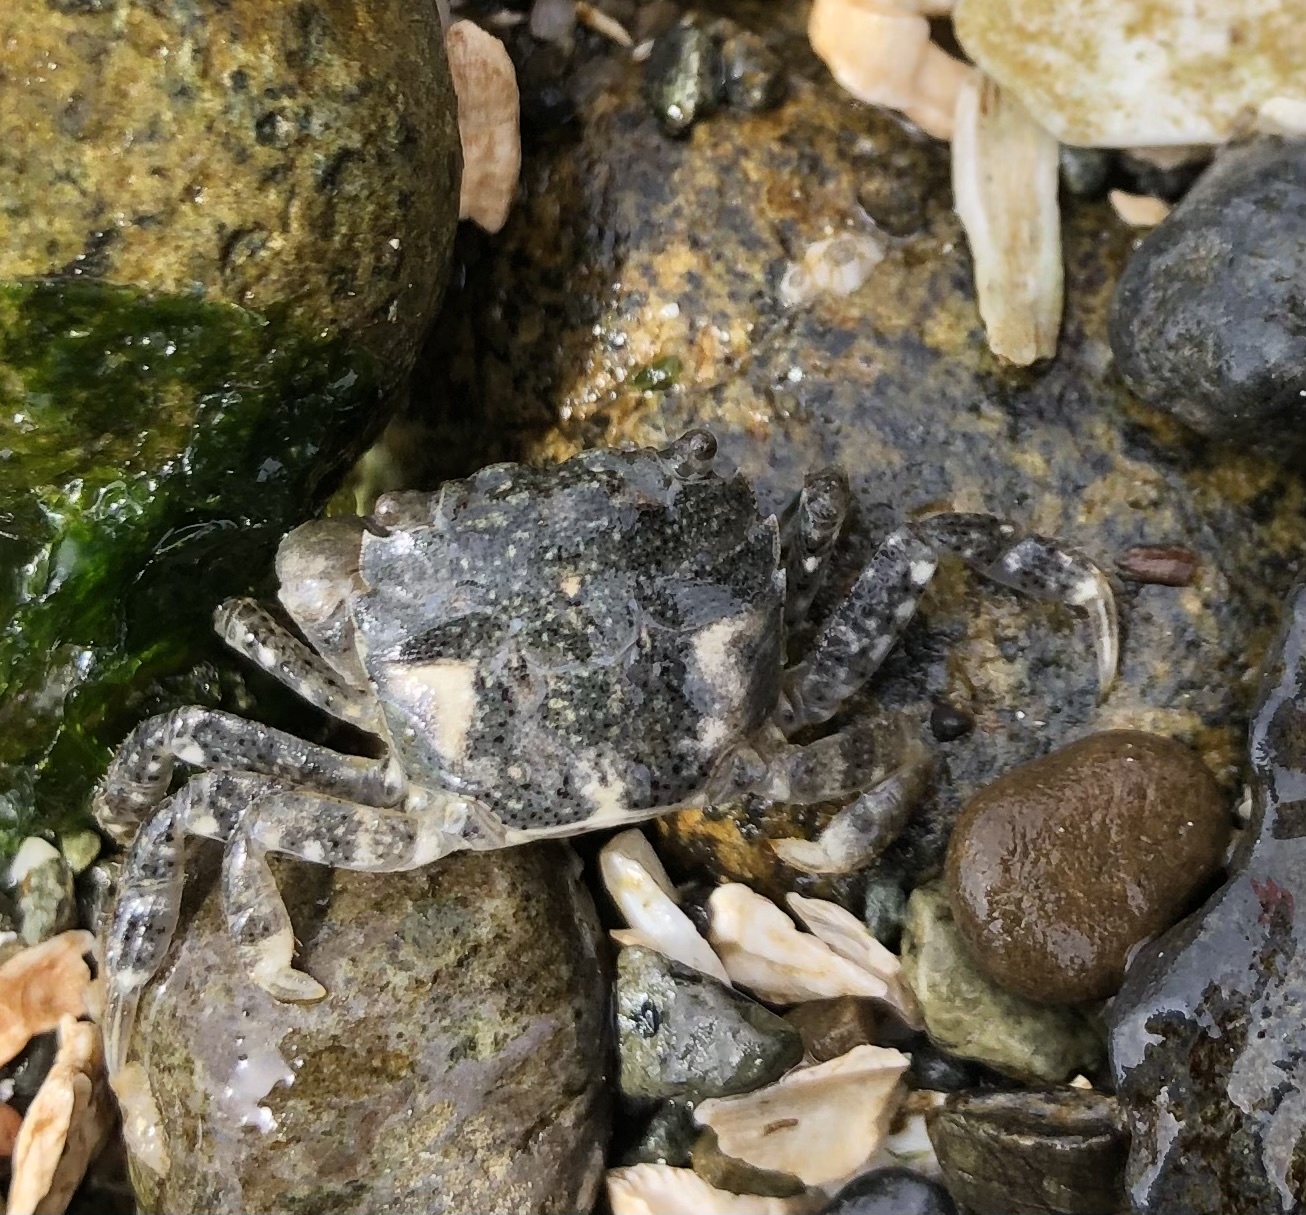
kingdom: Animalia
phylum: Arthropoda
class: Malacostraca
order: Decapoda
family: Varunidae
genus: Hemigrapsus
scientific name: Hemigrapsus oregonensis
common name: Yellow shore crab
